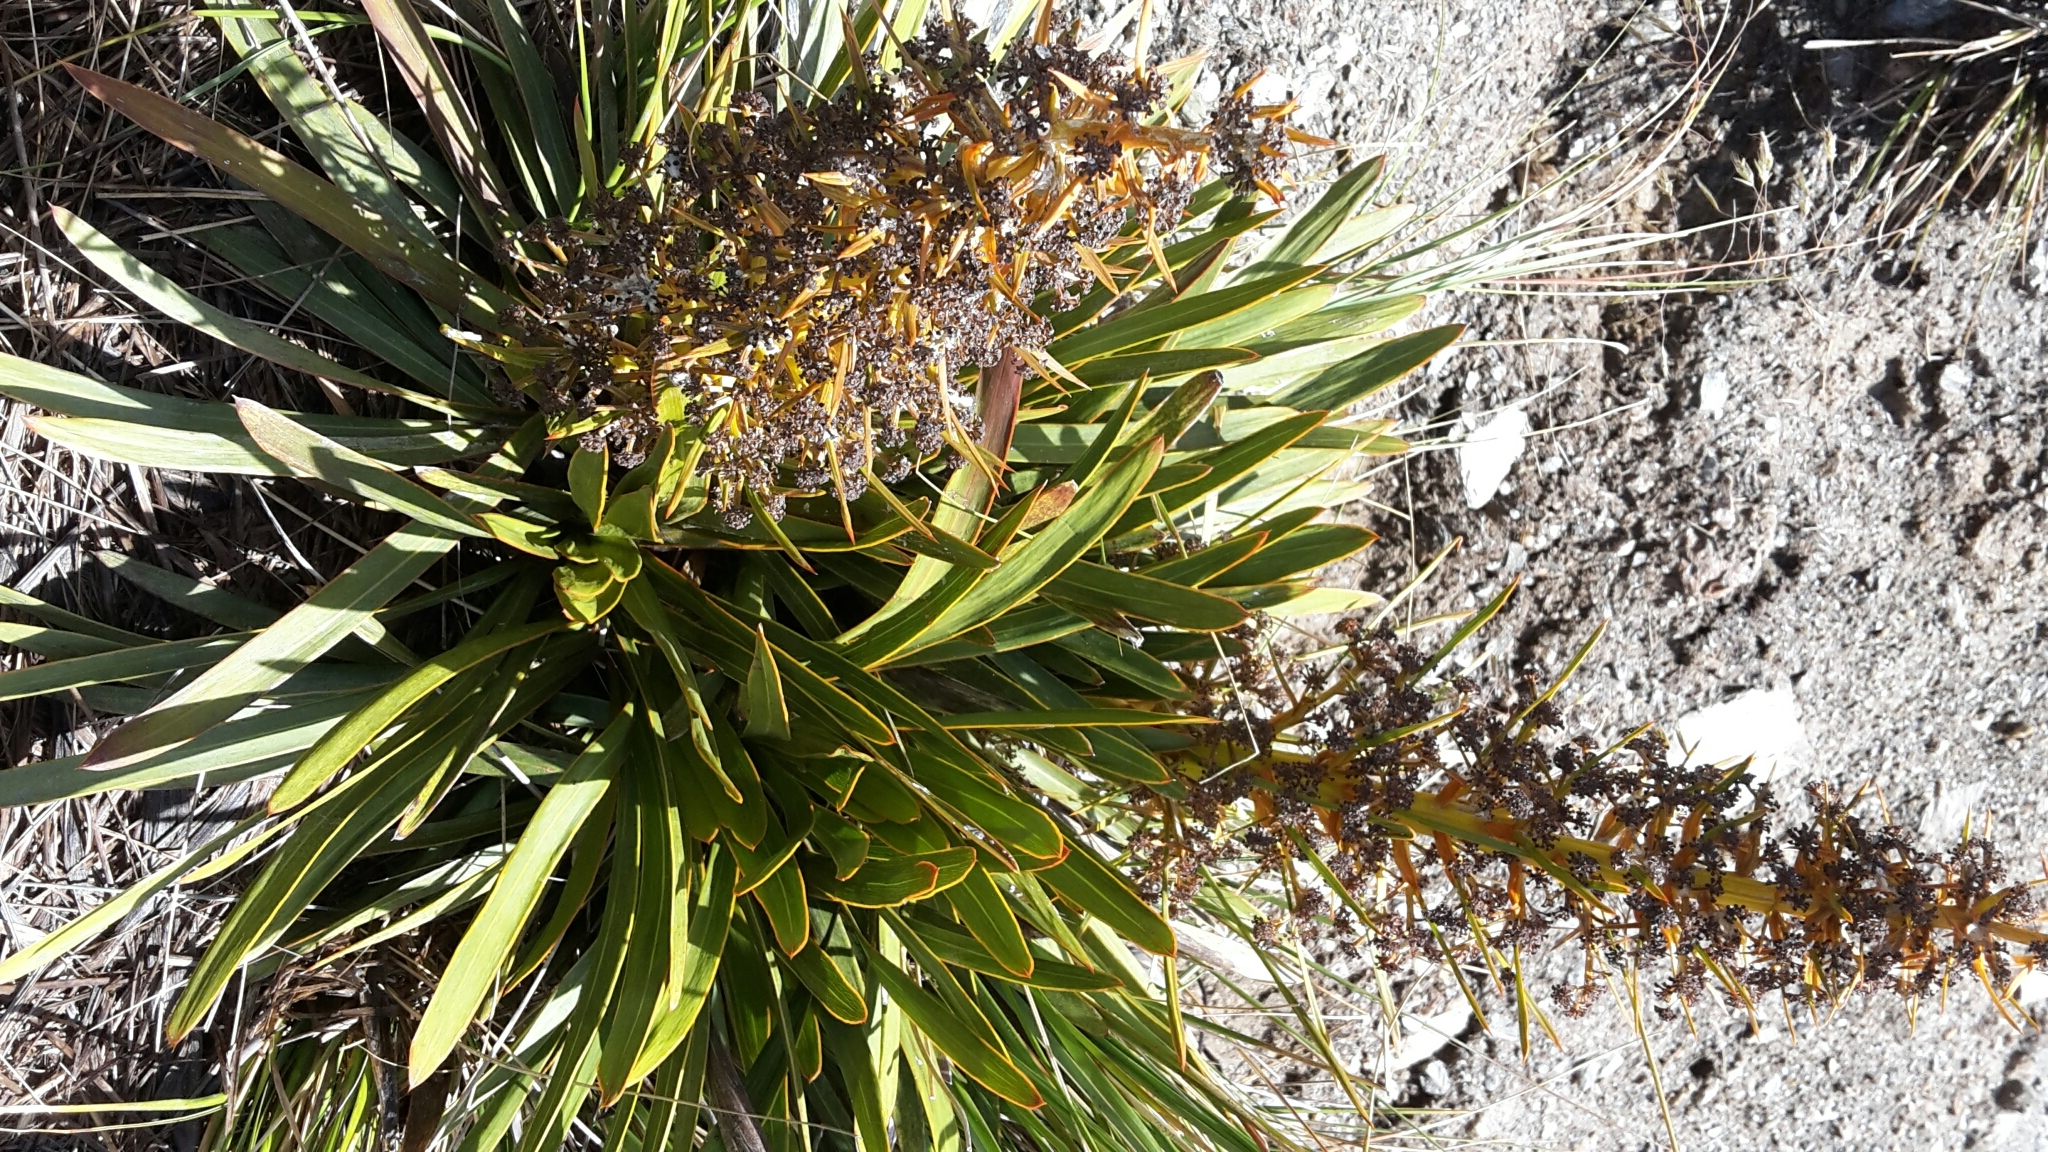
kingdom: Plantae
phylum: Tracheophyta
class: Magnoliopsida
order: Apiales
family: Apiaceae
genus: Aciphylla
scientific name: Aciphylla kirkii
